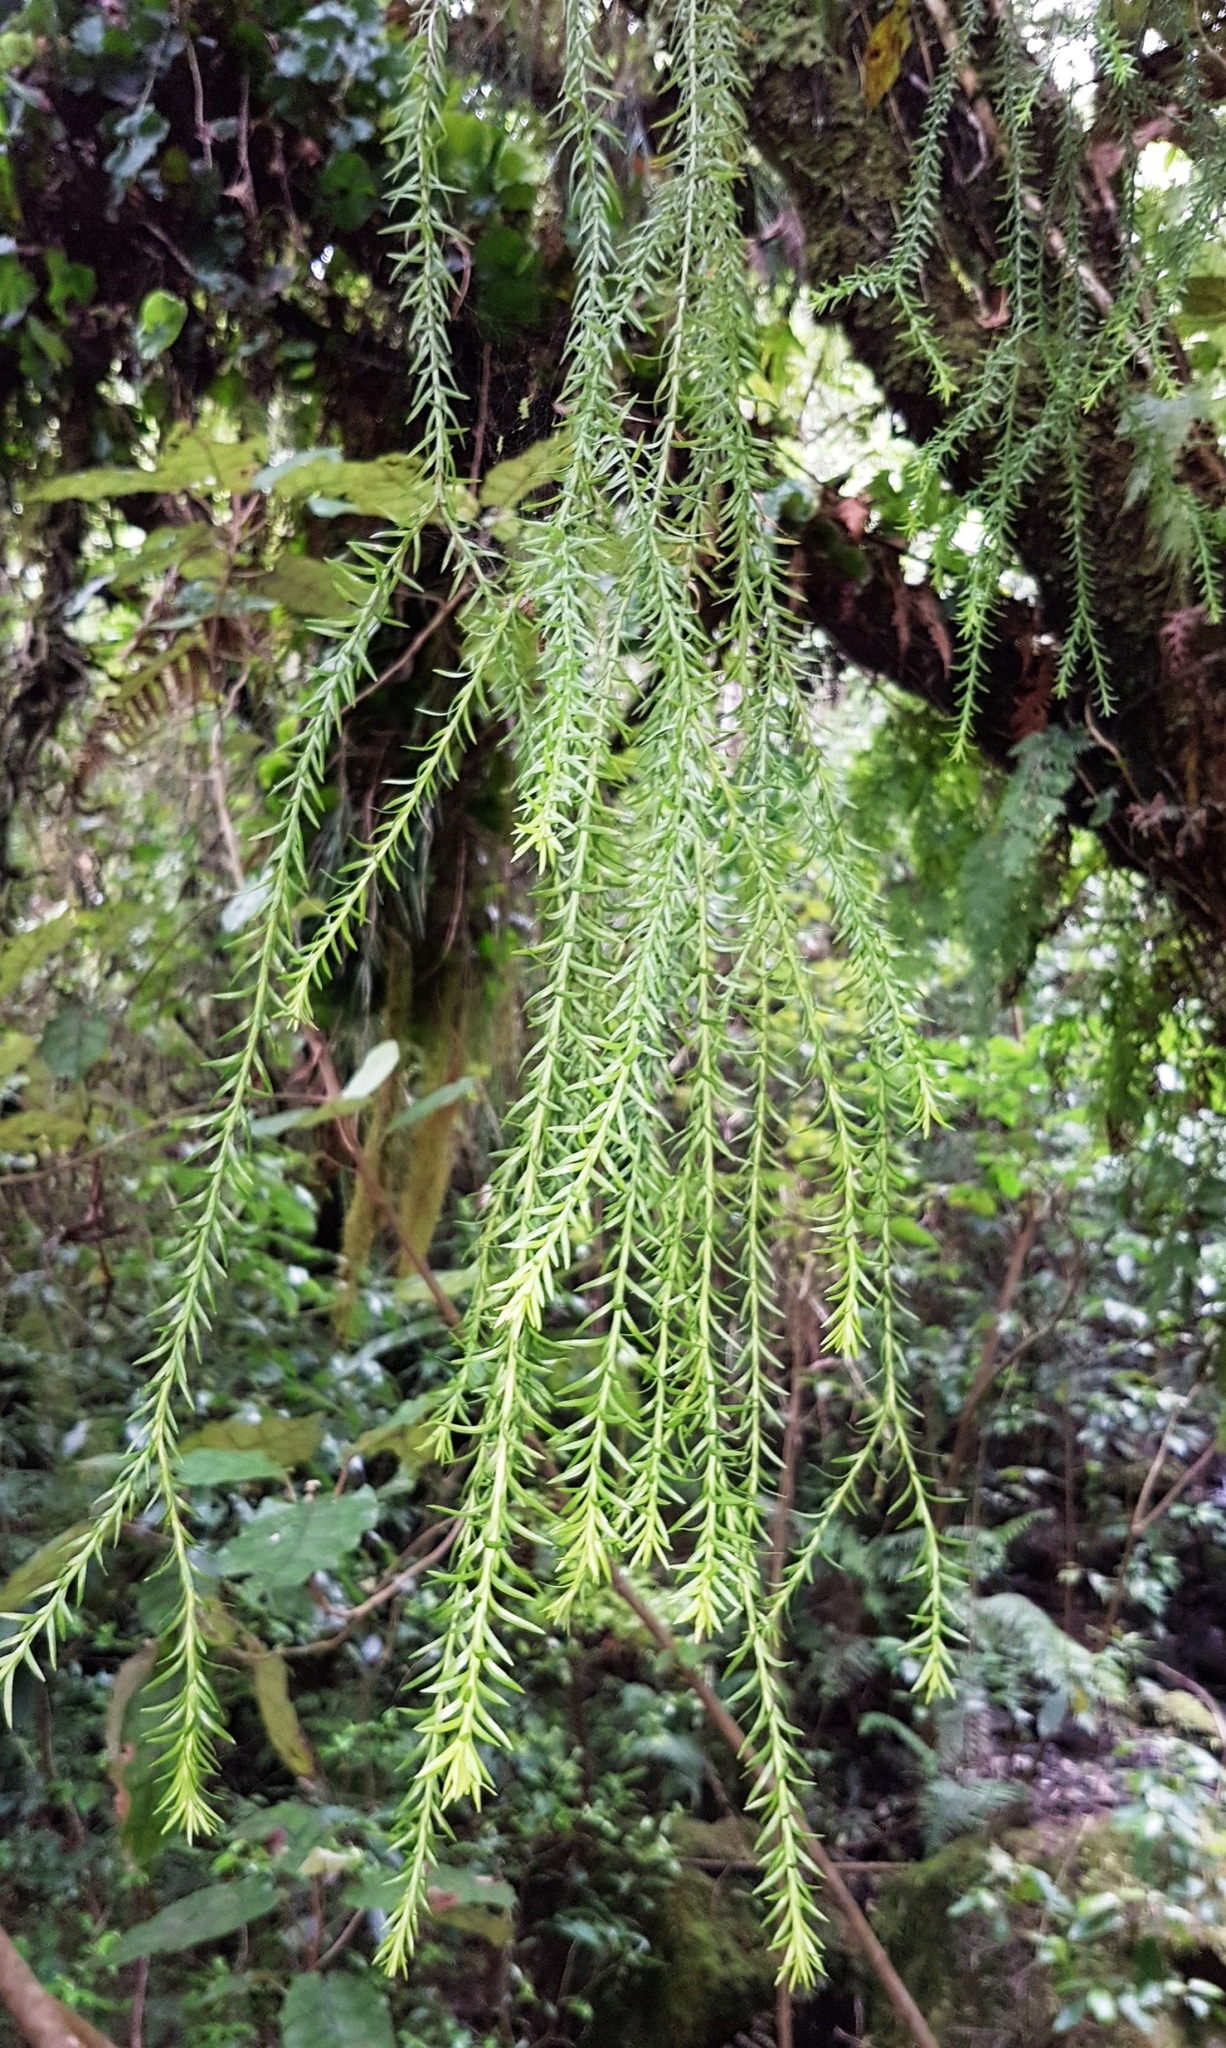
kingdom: Plantae
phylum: Tracheophyta
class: Lycopodiopsida
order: Lycopodiales
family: Lycopodiaceae
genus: Phlegmariurus
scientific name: Phlegmariurus varius
